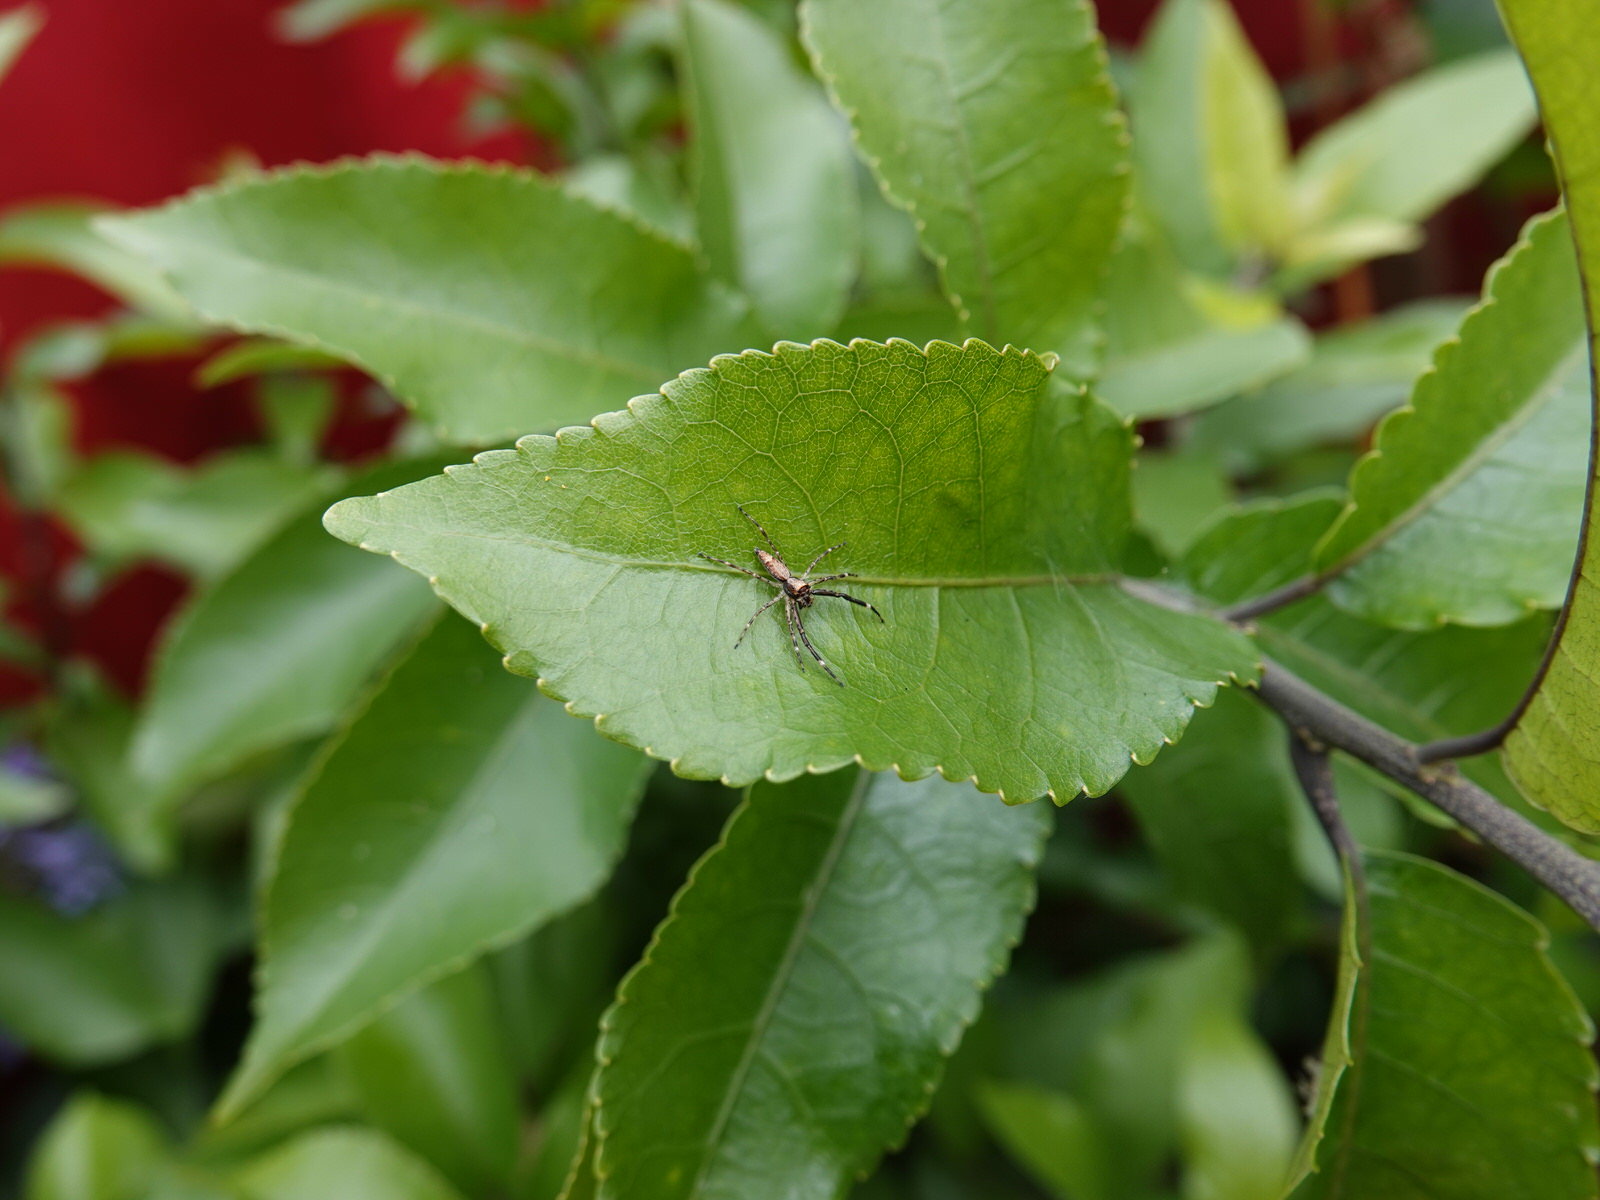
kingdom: Animalia
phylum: Arthropoda
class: Arachnida
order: Araneae
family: Salticidae
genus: Helpis
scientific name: Helpis minitabunda
